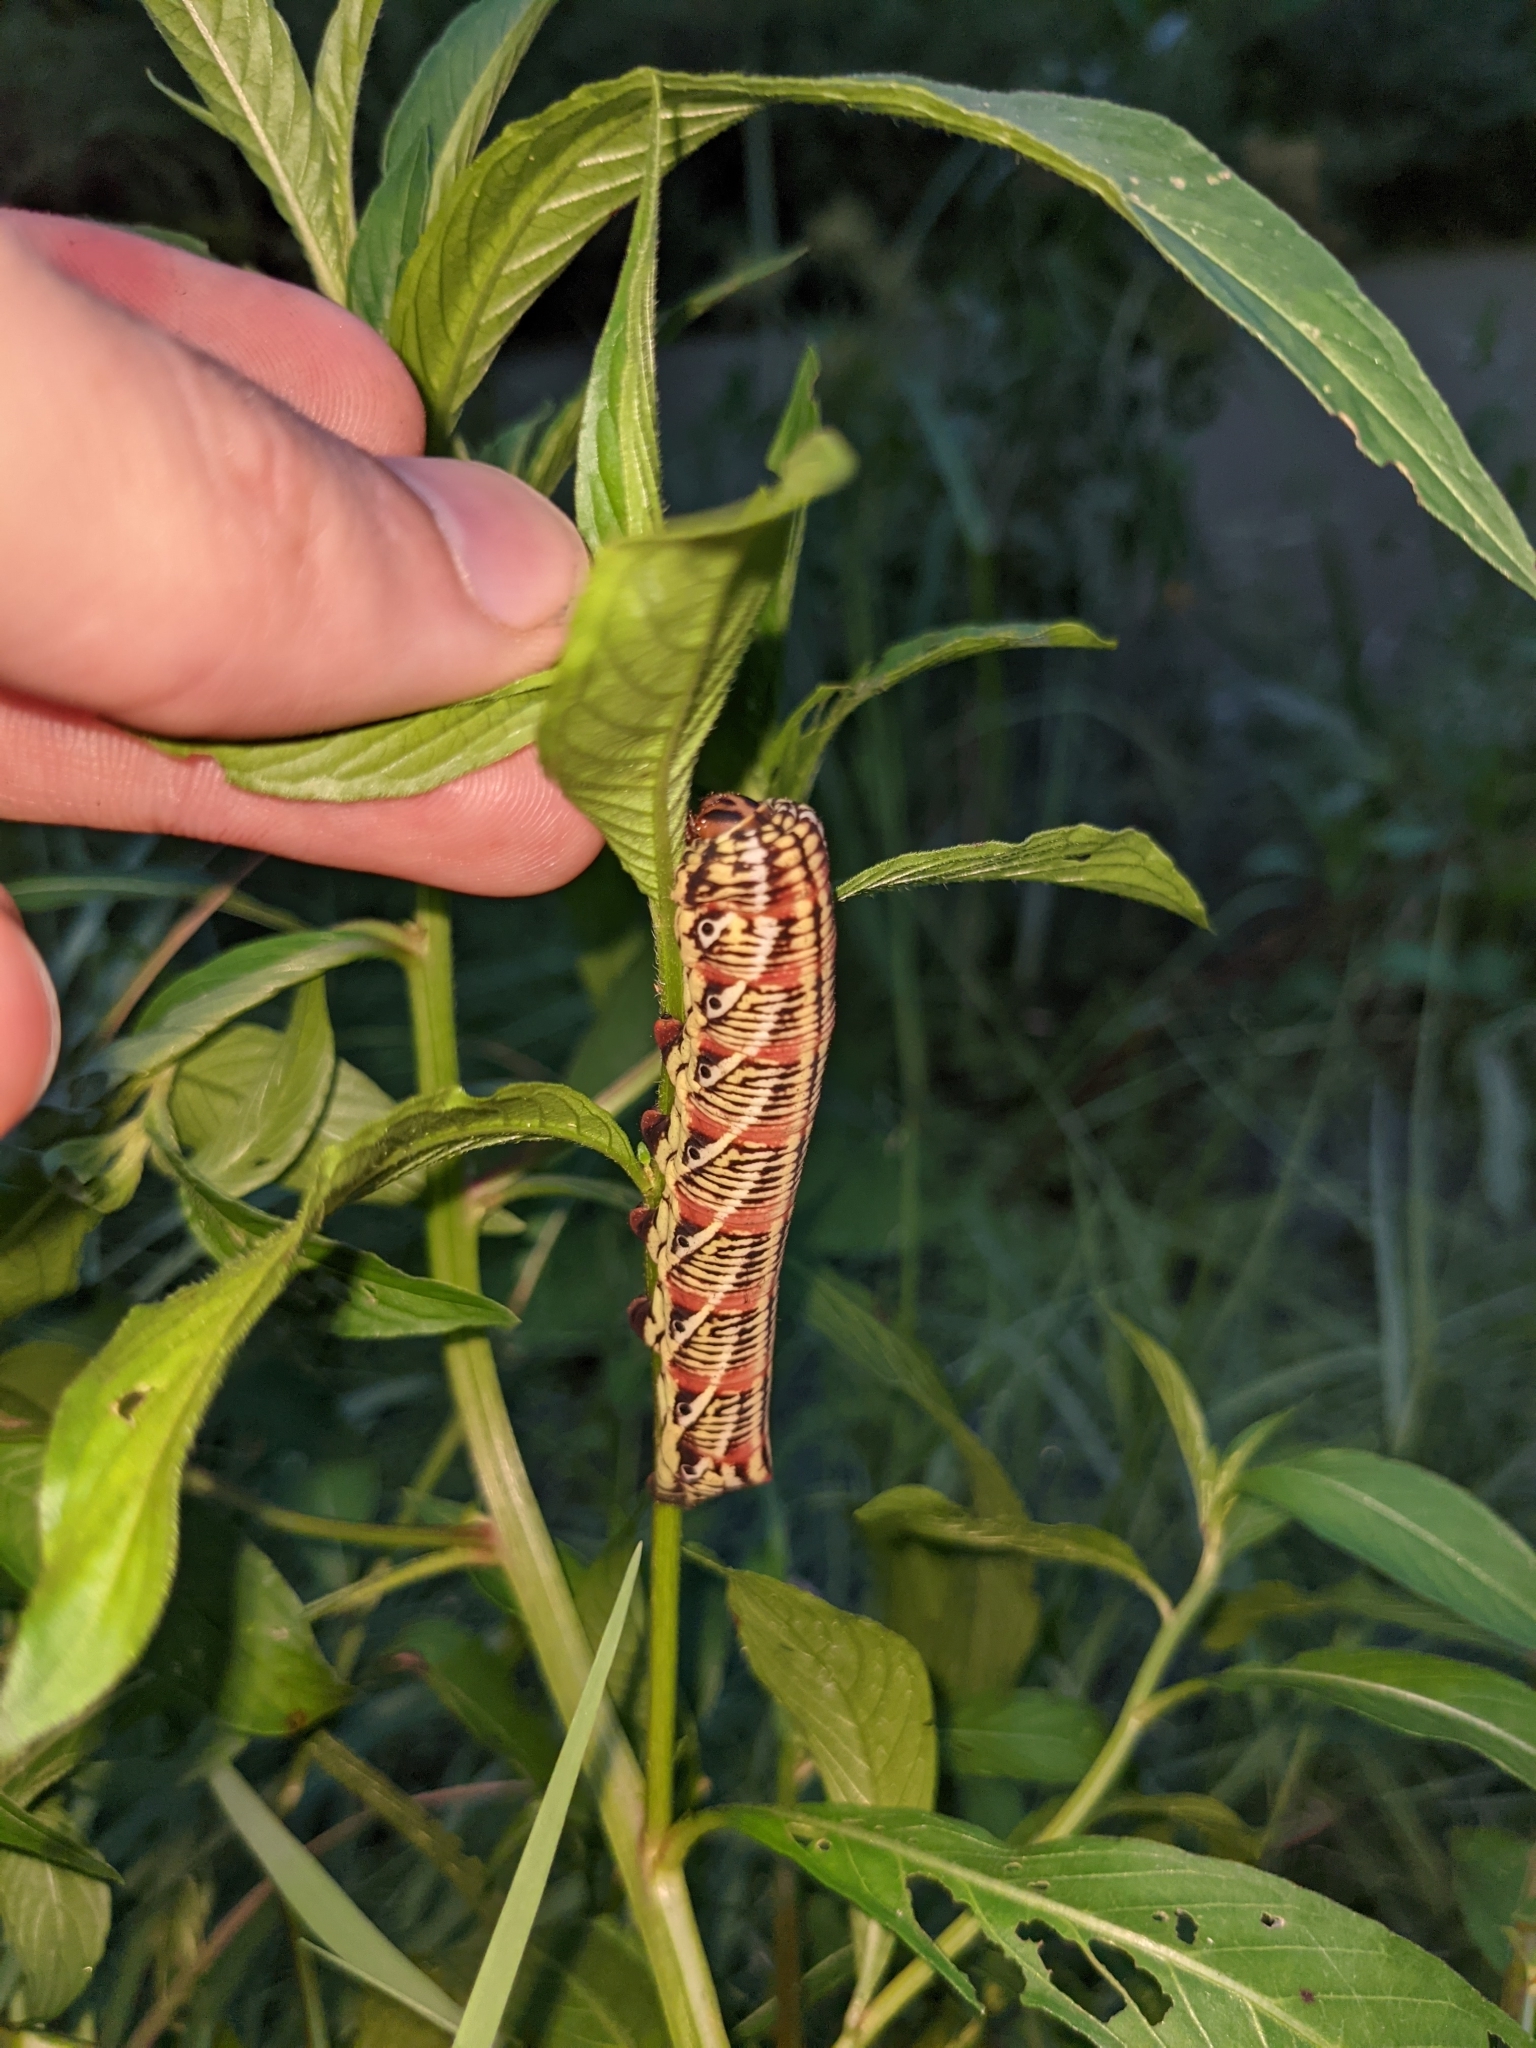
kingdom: Animalia
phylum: Arthropoda
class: Insecta
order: Lepidoptera
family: Sphingidae
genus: Eumorpha
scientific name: Eumorpha fasciatus
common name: Banded sphinx
